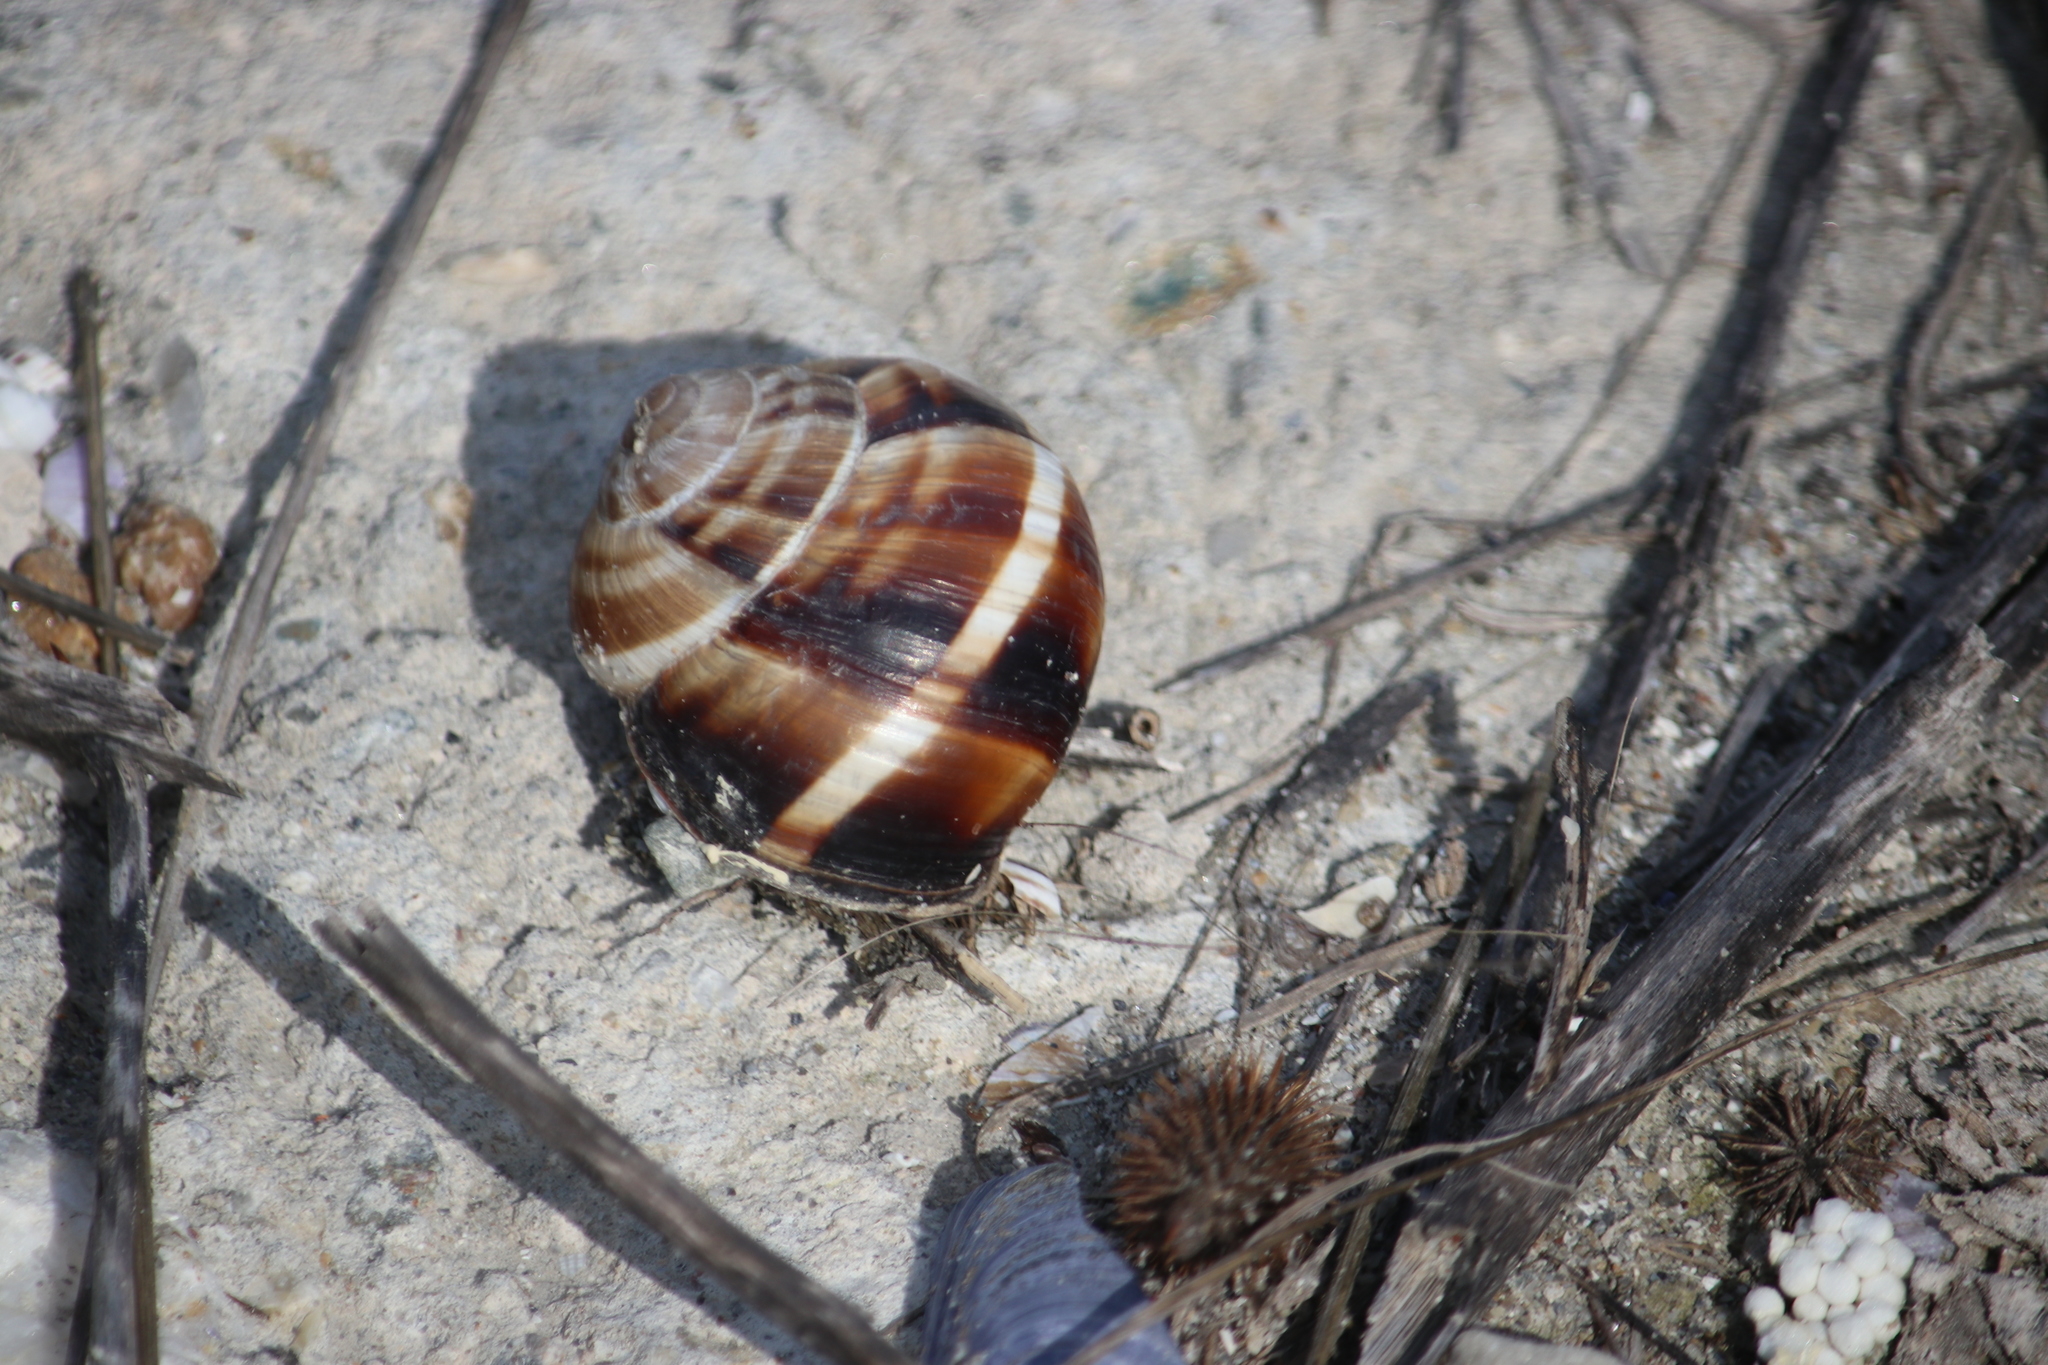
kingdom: Animalia
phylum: Mollusca
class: Gastropoda
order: Stylommatophora
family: Helicidae
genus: Helix
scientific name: Helix lucorum
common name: Turkish snail
